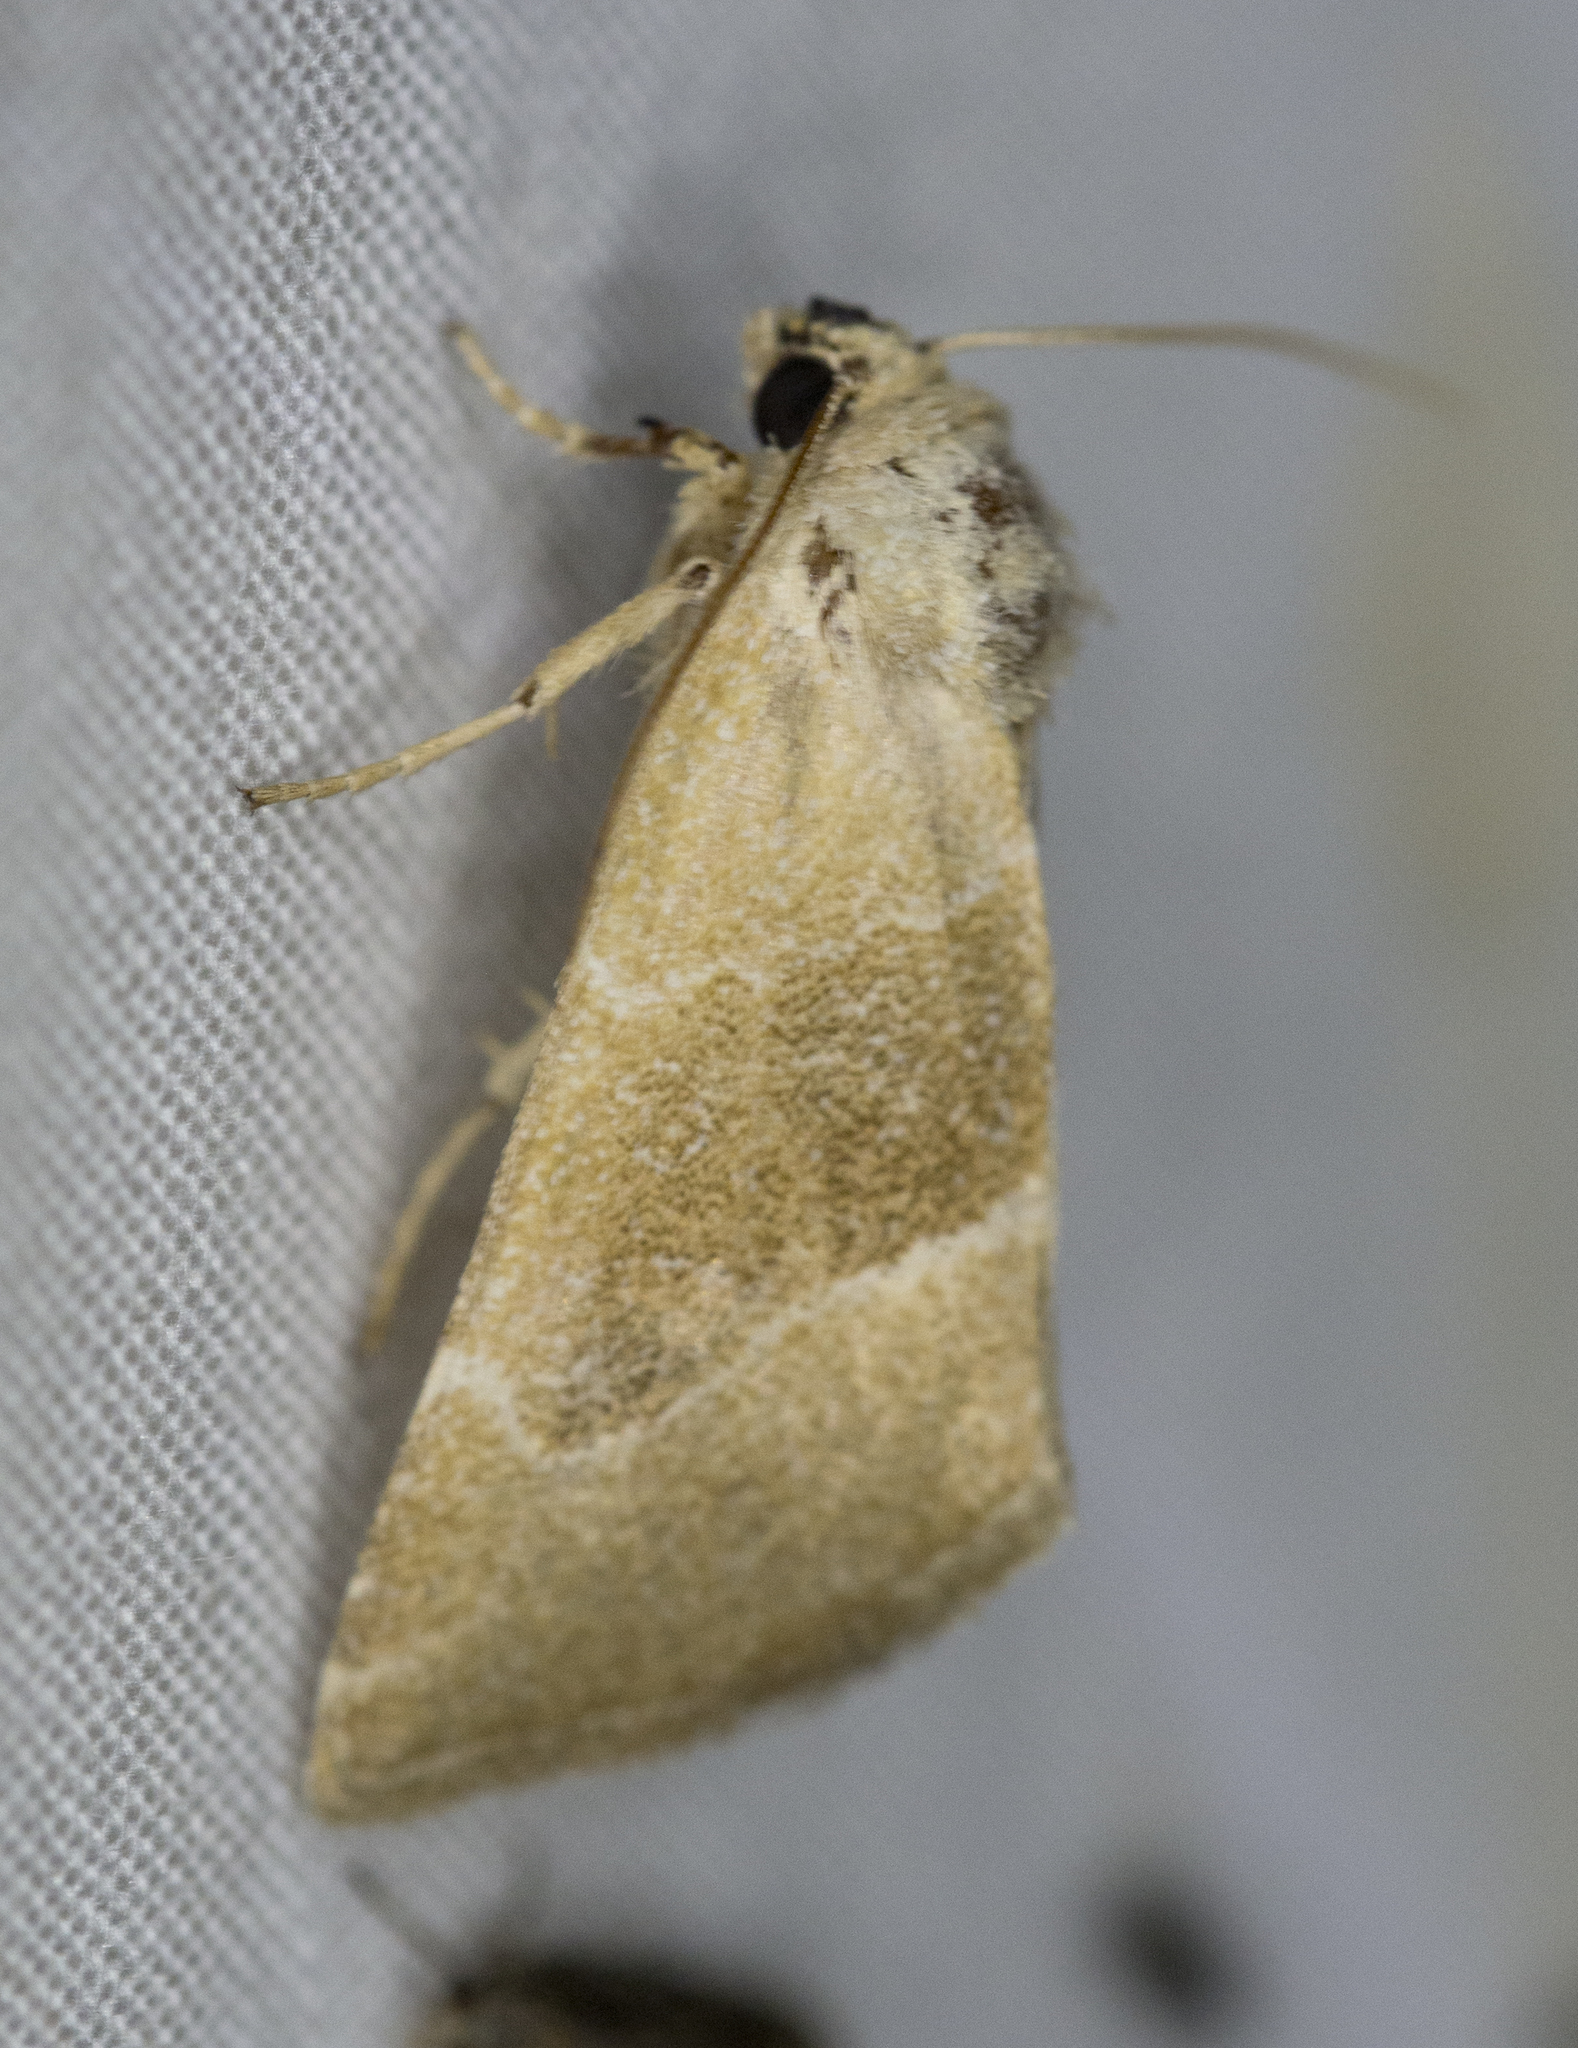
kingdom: Animalia
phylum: Arthropoda
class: Insecta
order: Lepidoptera
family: Noctuidae
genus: Plagiomimicus
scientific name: Plagiomimicus spumosum
